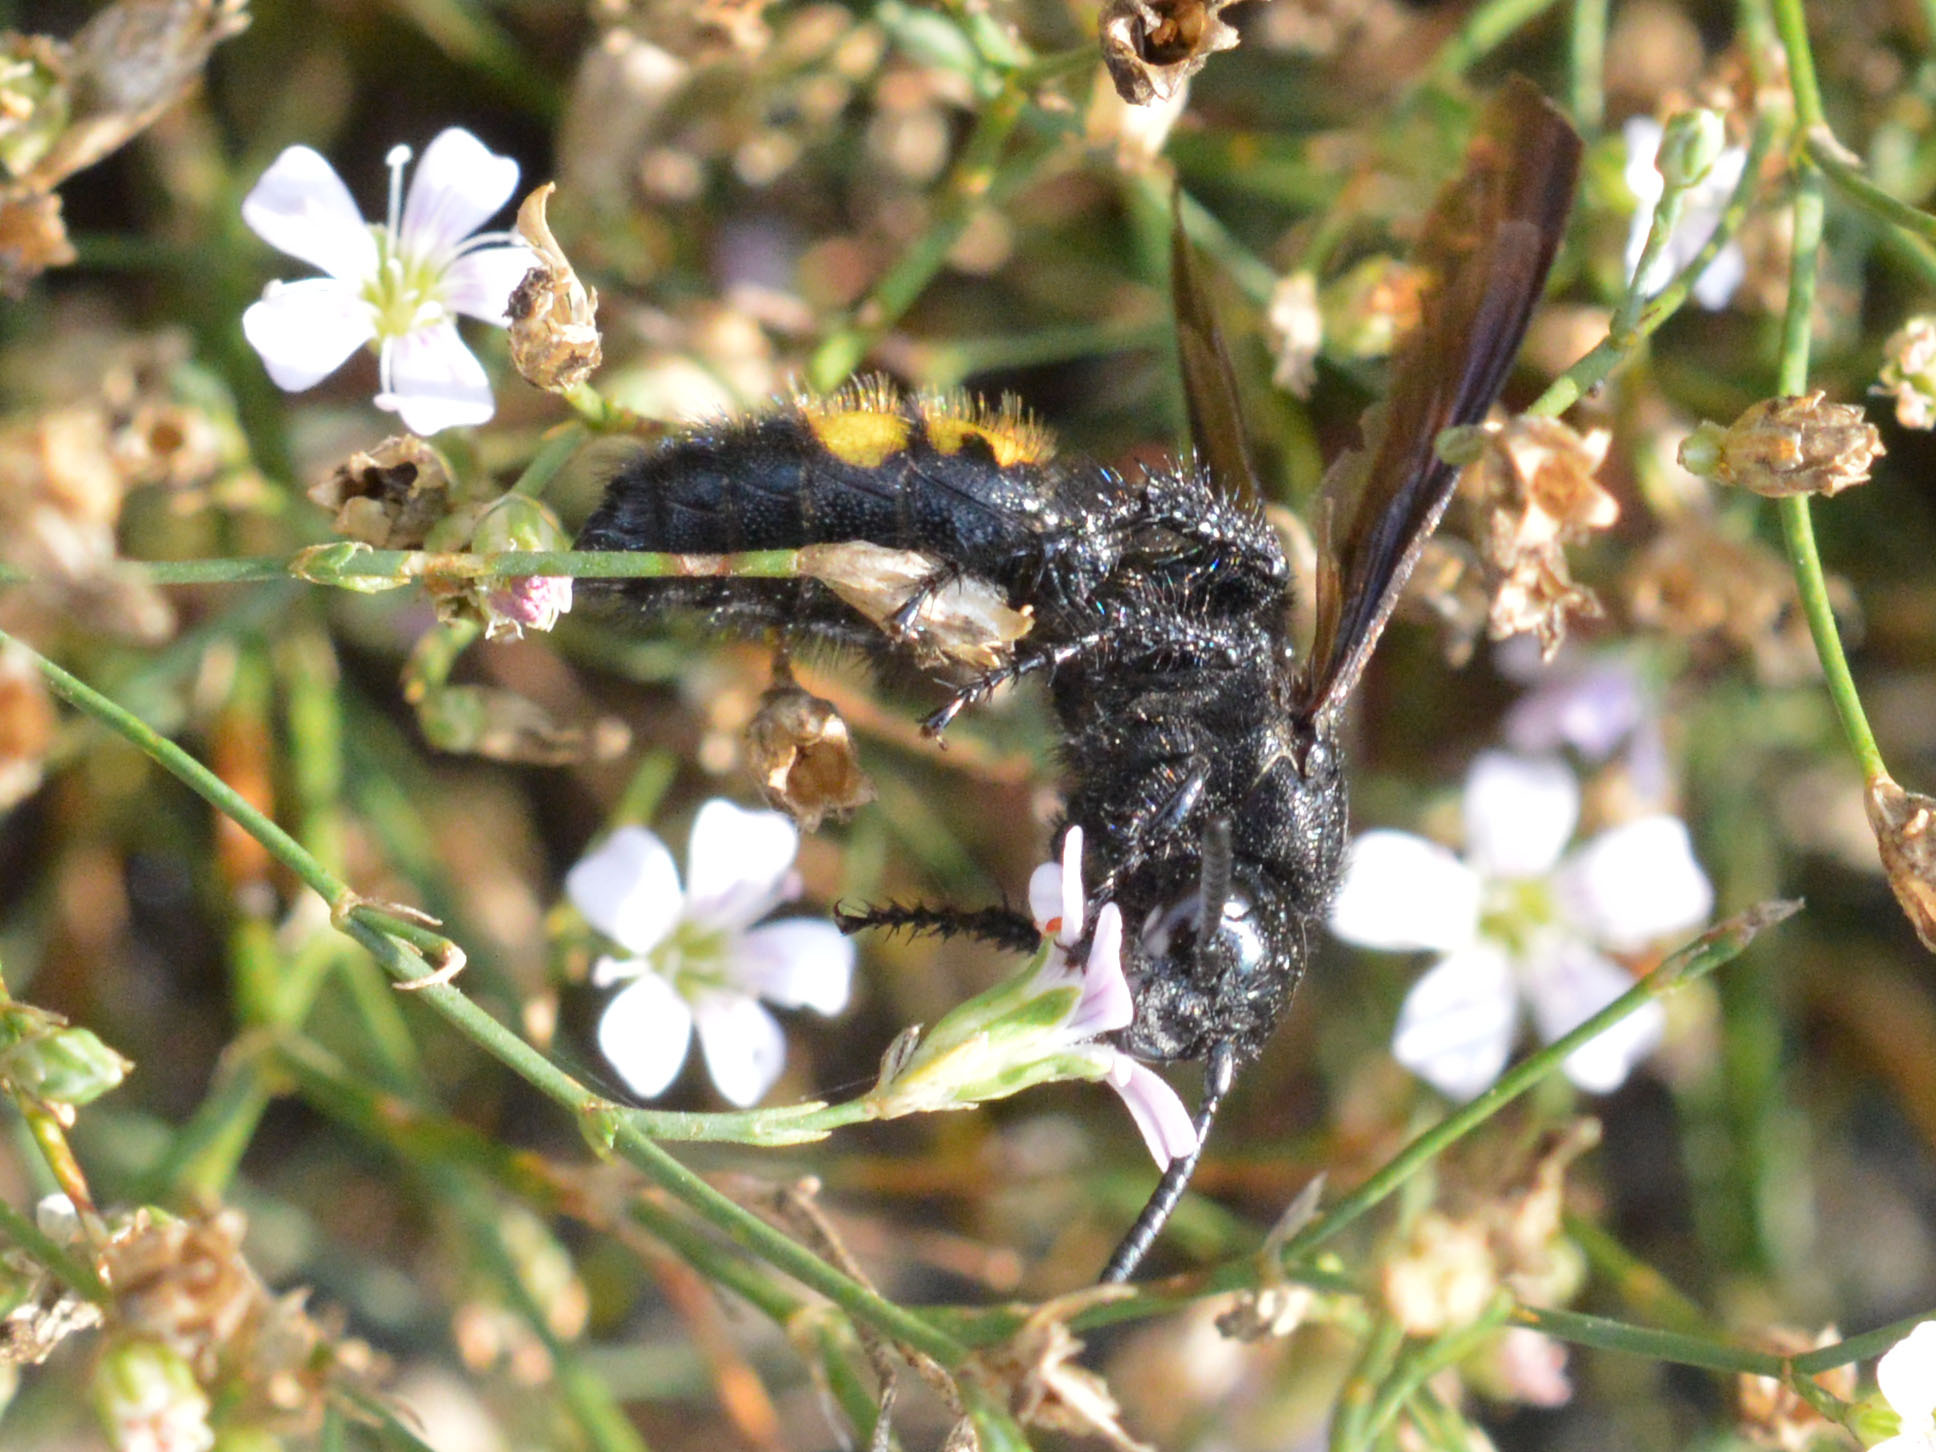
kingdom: Animalia
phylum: Arthropoda
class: Insecta
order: Hymenoptera
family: Scoliidae
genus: Scolia
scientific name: Scolia hirta
